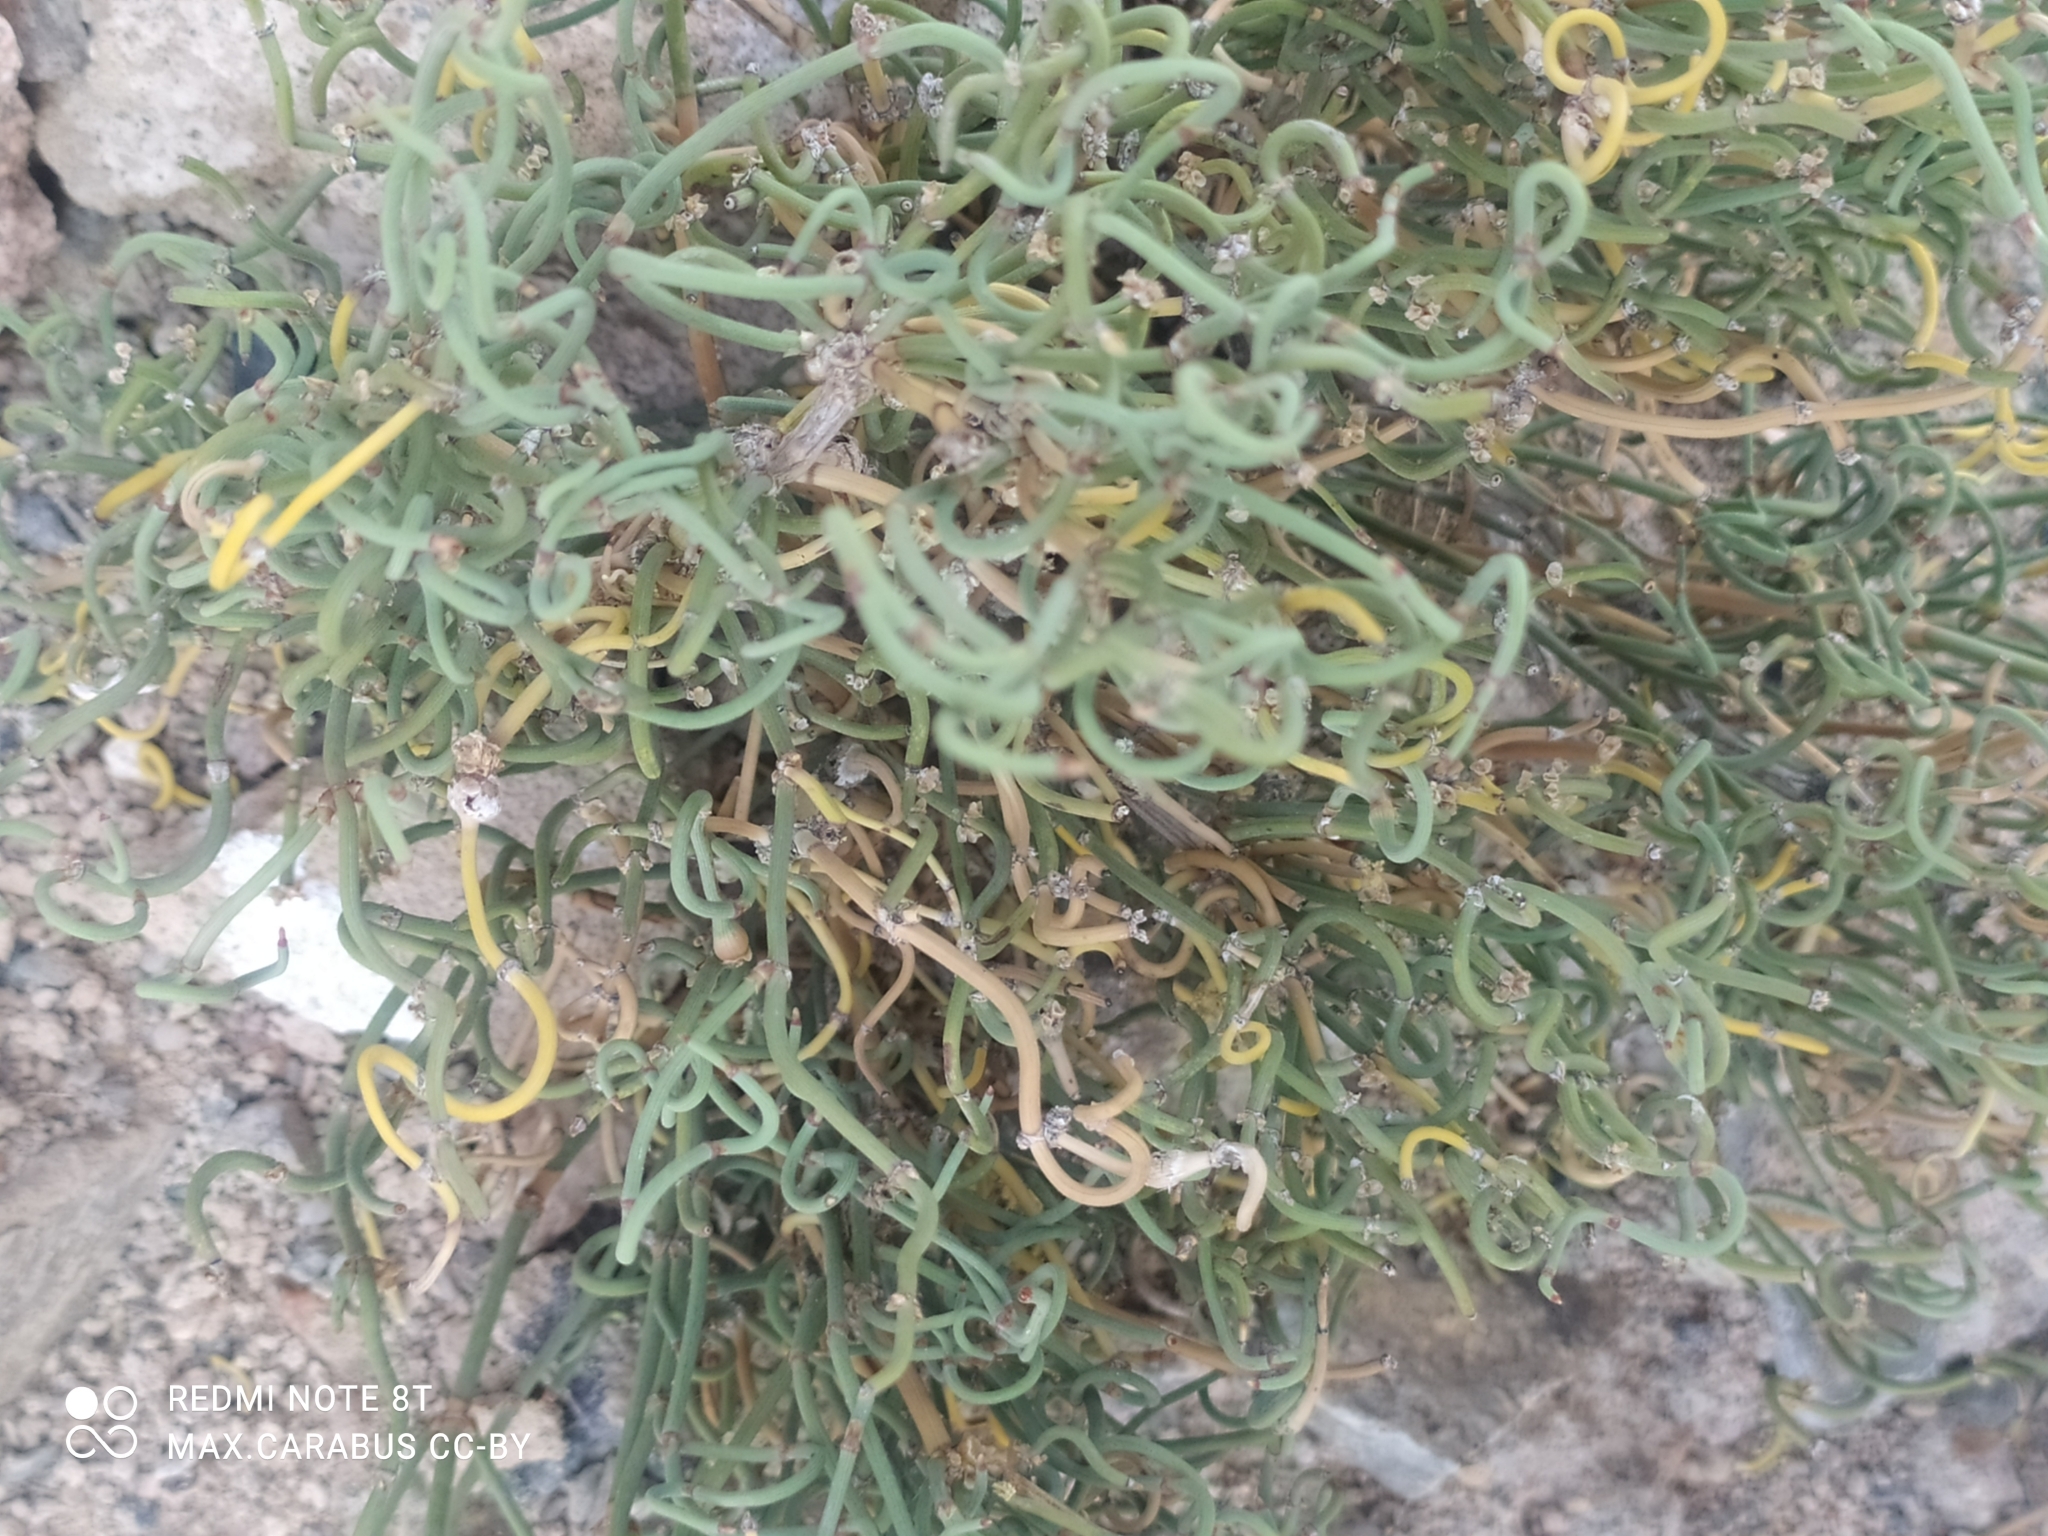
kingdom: Plantae
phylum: Tracheophyta
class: Gnetopsida
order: Ephedrales
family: Ephedraceae
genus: Ephedra
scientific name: Ephedra distachya
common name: Sea grape
